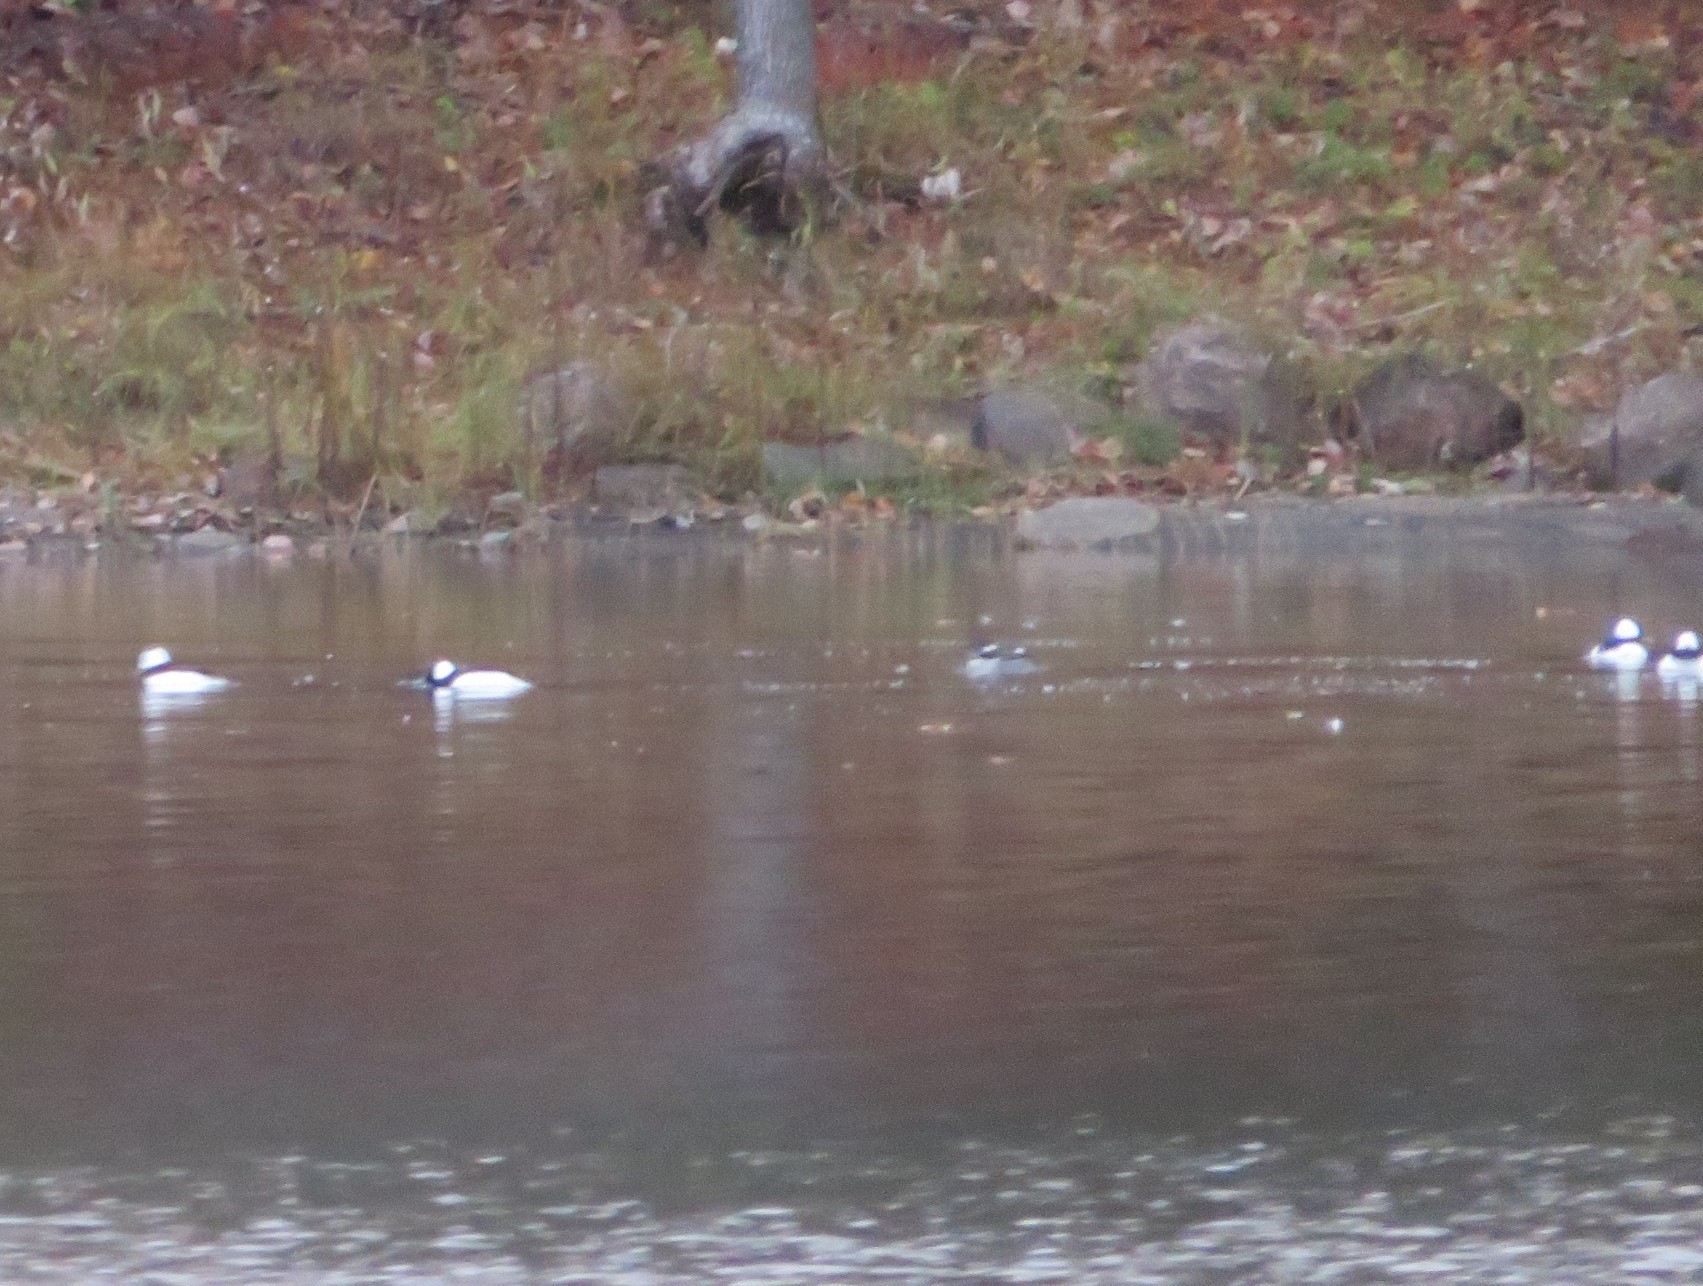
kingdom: Animalia
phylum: Chordata
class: Aves
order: Anseriformes
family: Anatidae
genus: Bucephala
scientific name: Bucephala albeola
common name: Bufflehead
